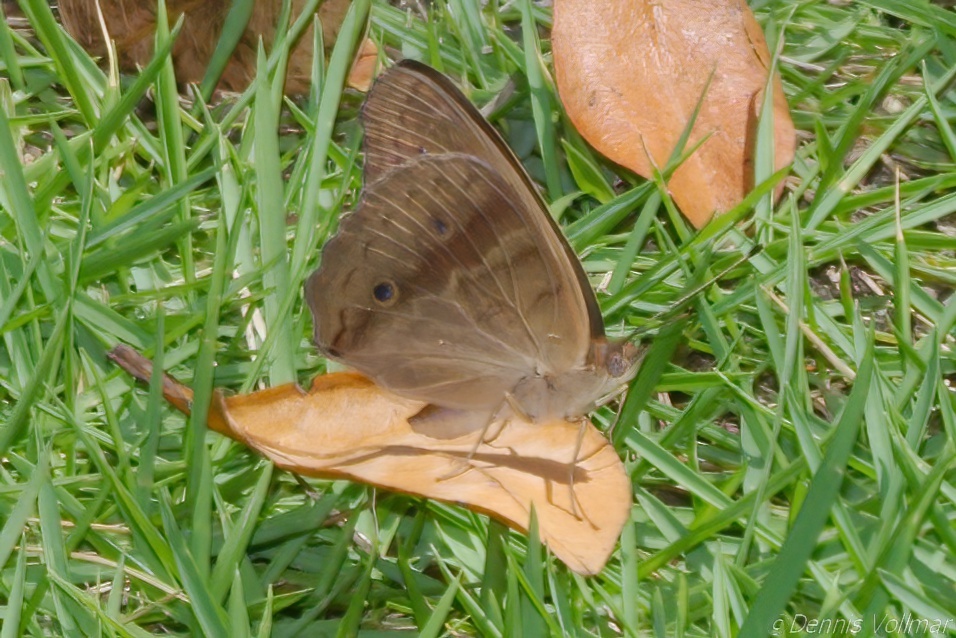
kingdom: Animalia
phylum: Arthropoda
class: Insecta
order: Lepidoptera
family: Nymphalidae
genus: Junonia
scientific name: Junonia neildi
